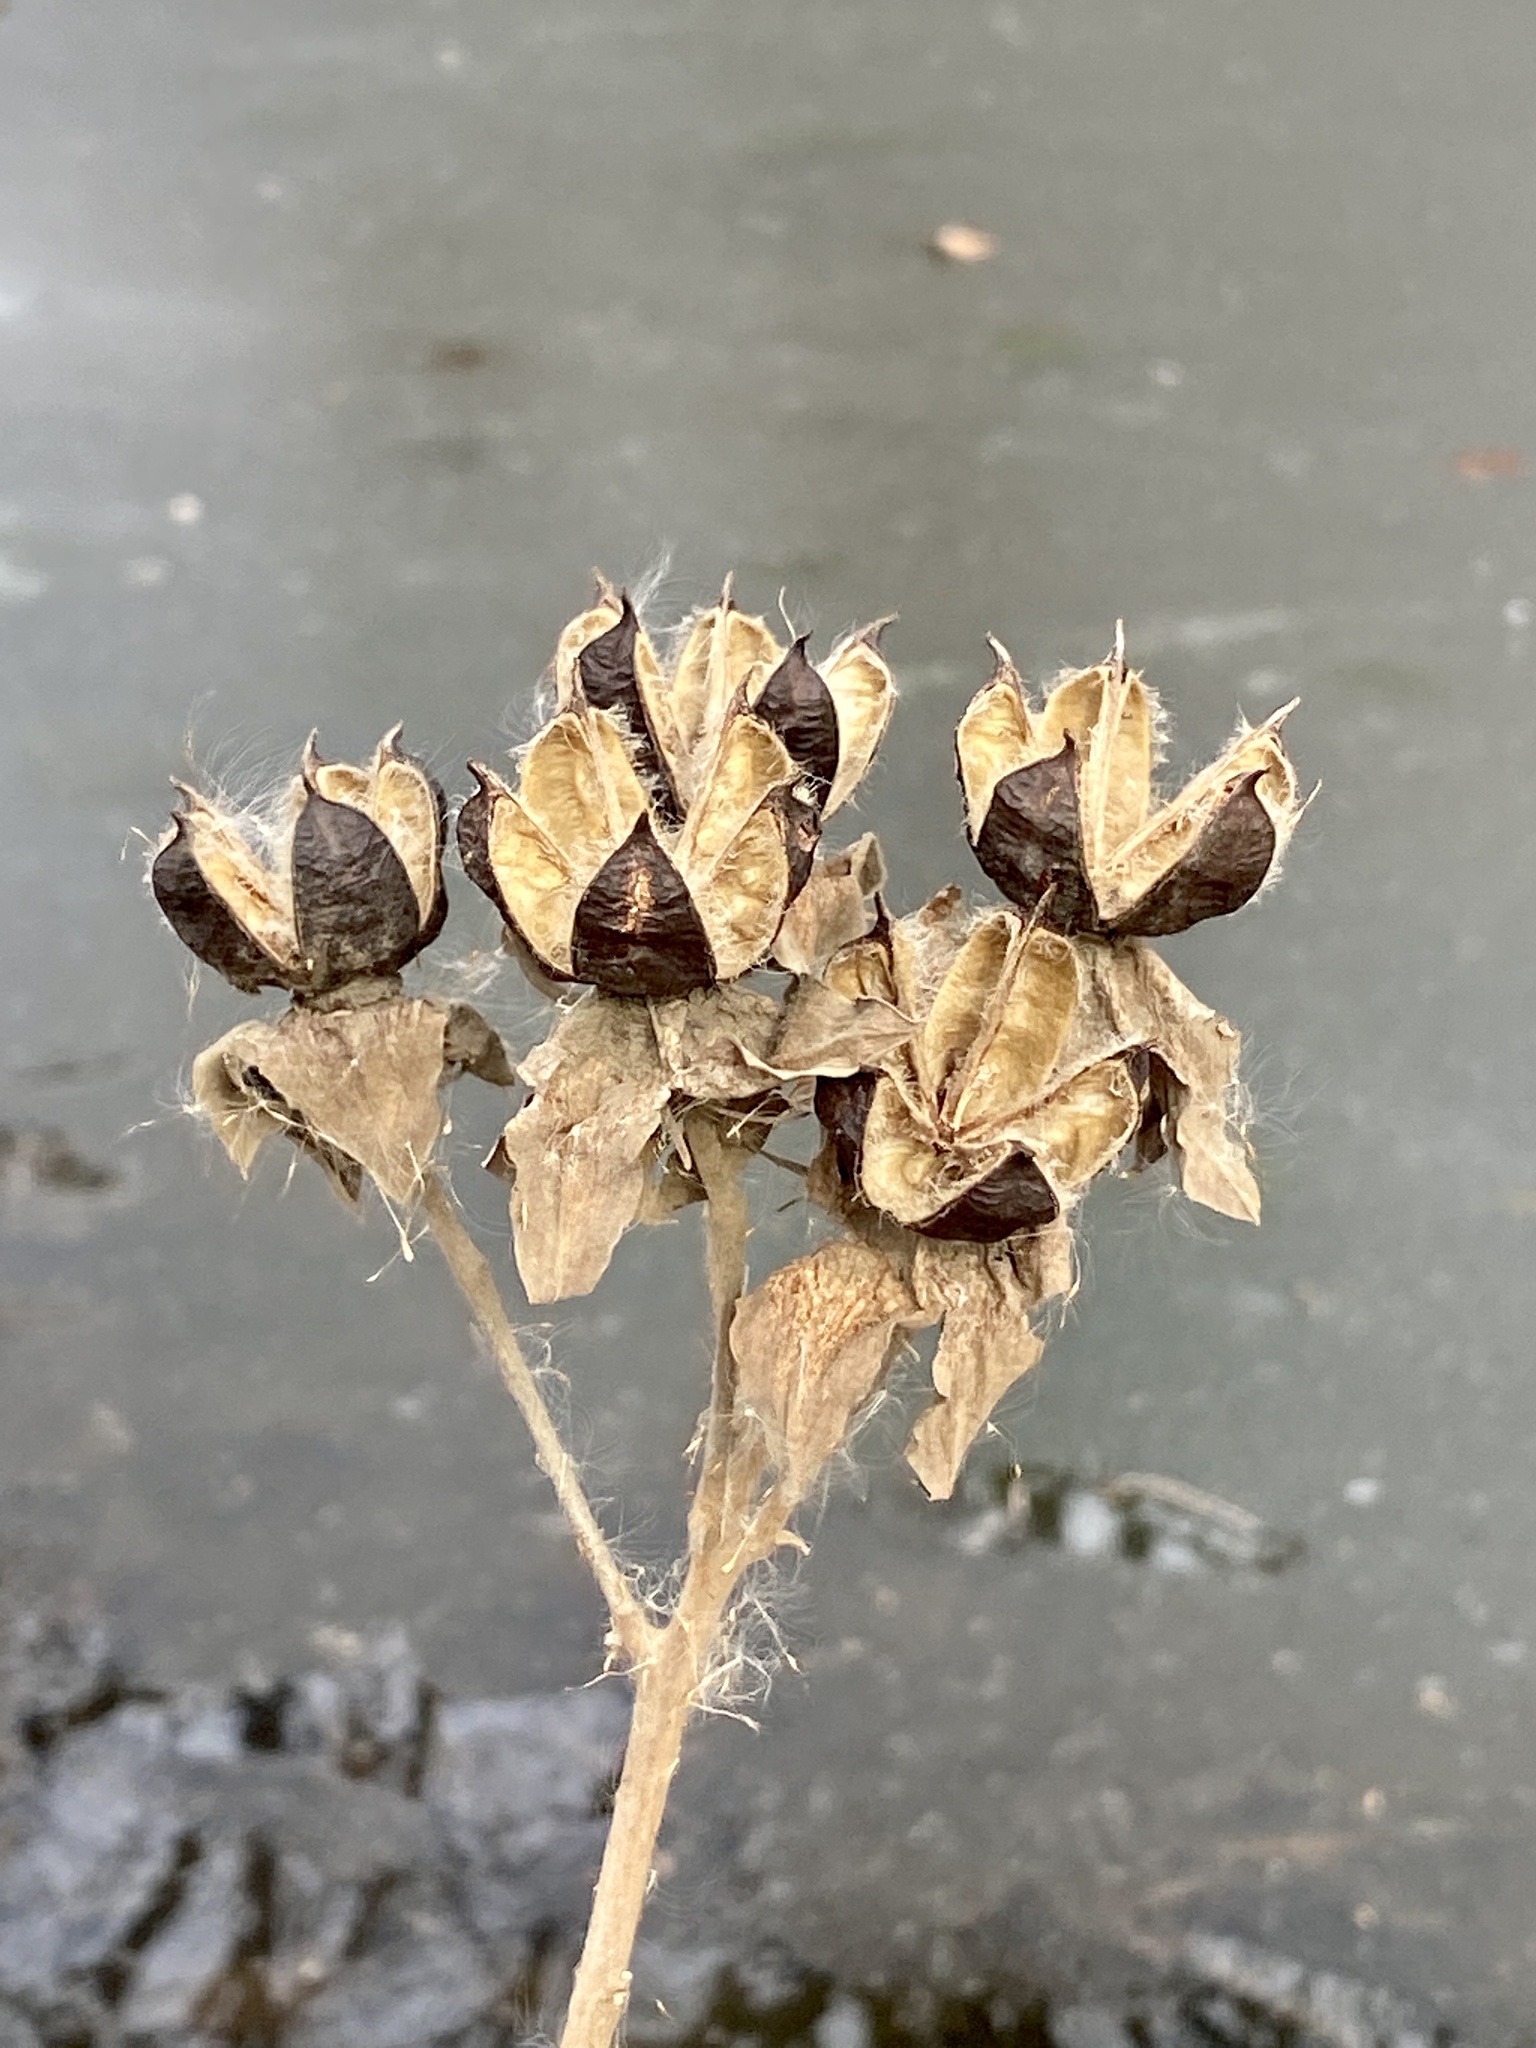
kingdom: Plantae
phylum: Tracheophyta
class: Magnoliopsida
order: Malvales
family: Malvaceae
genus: Hibiscus
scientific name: Hibiscus moscheutos
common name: Common rose-mallow
